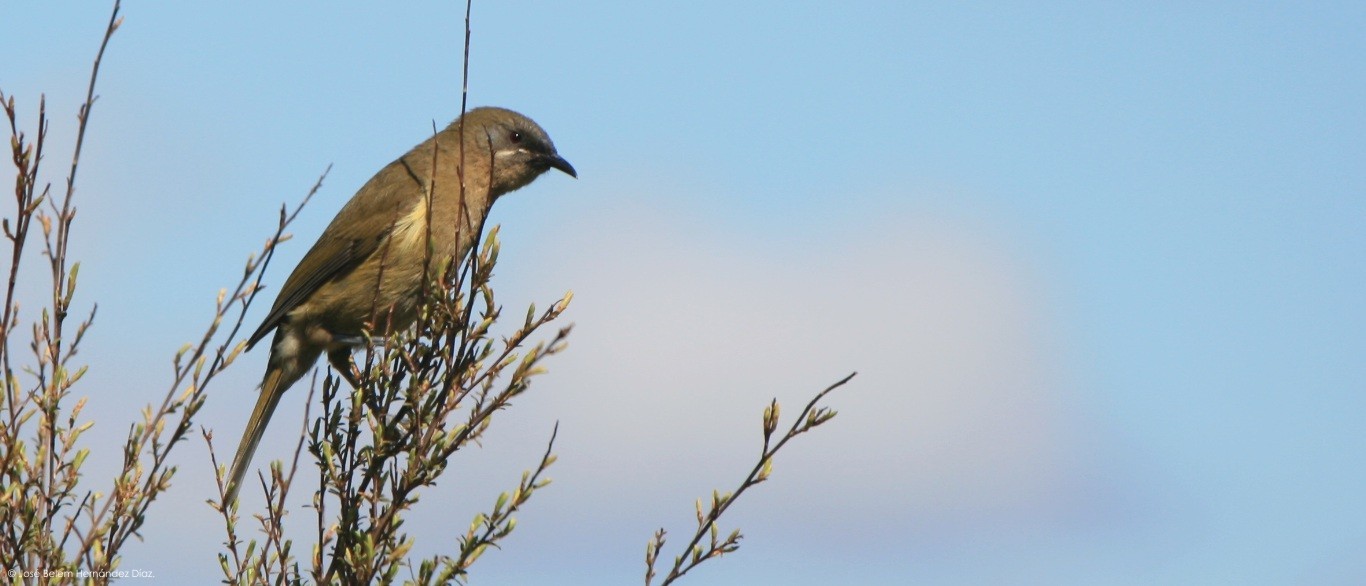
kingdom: Animalia
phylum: Chordata
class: Aves
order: Passeriformes
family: Meliphagidae
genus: Anthornis
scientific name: Anthornis melanura
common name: New zealand bellbird
